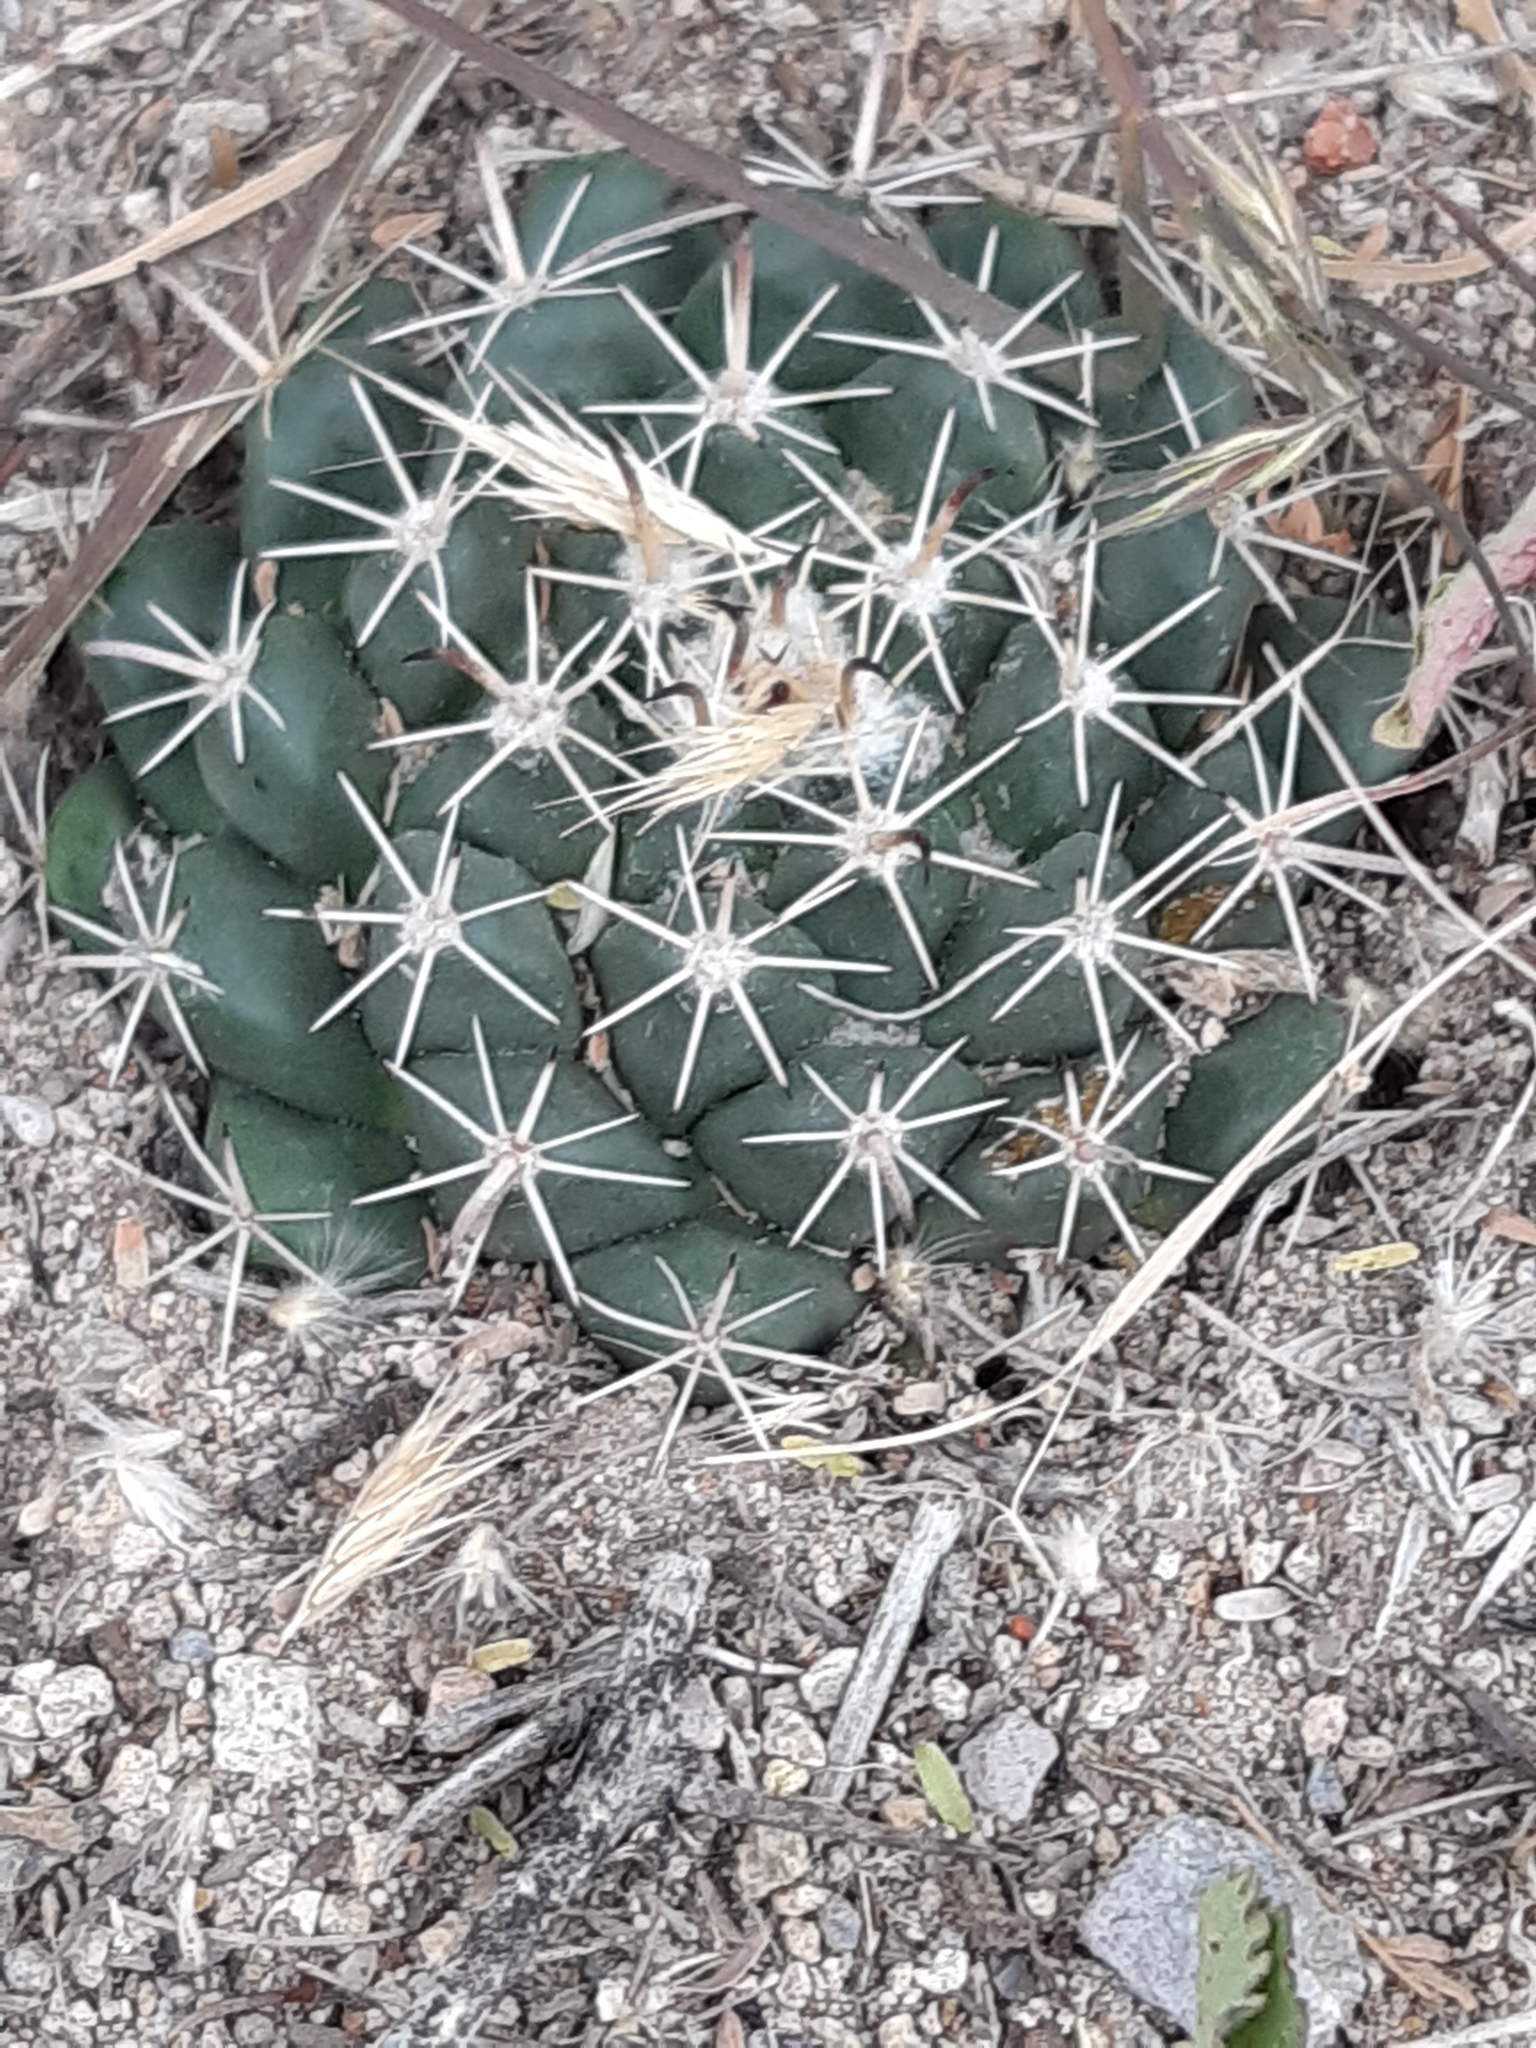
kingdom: Plantae
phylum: Tracheophyta
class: Magnoliopsida
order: Caryophyllales
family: Cactaceae
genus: Mammillaria
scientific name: Mammillaria uncinata
